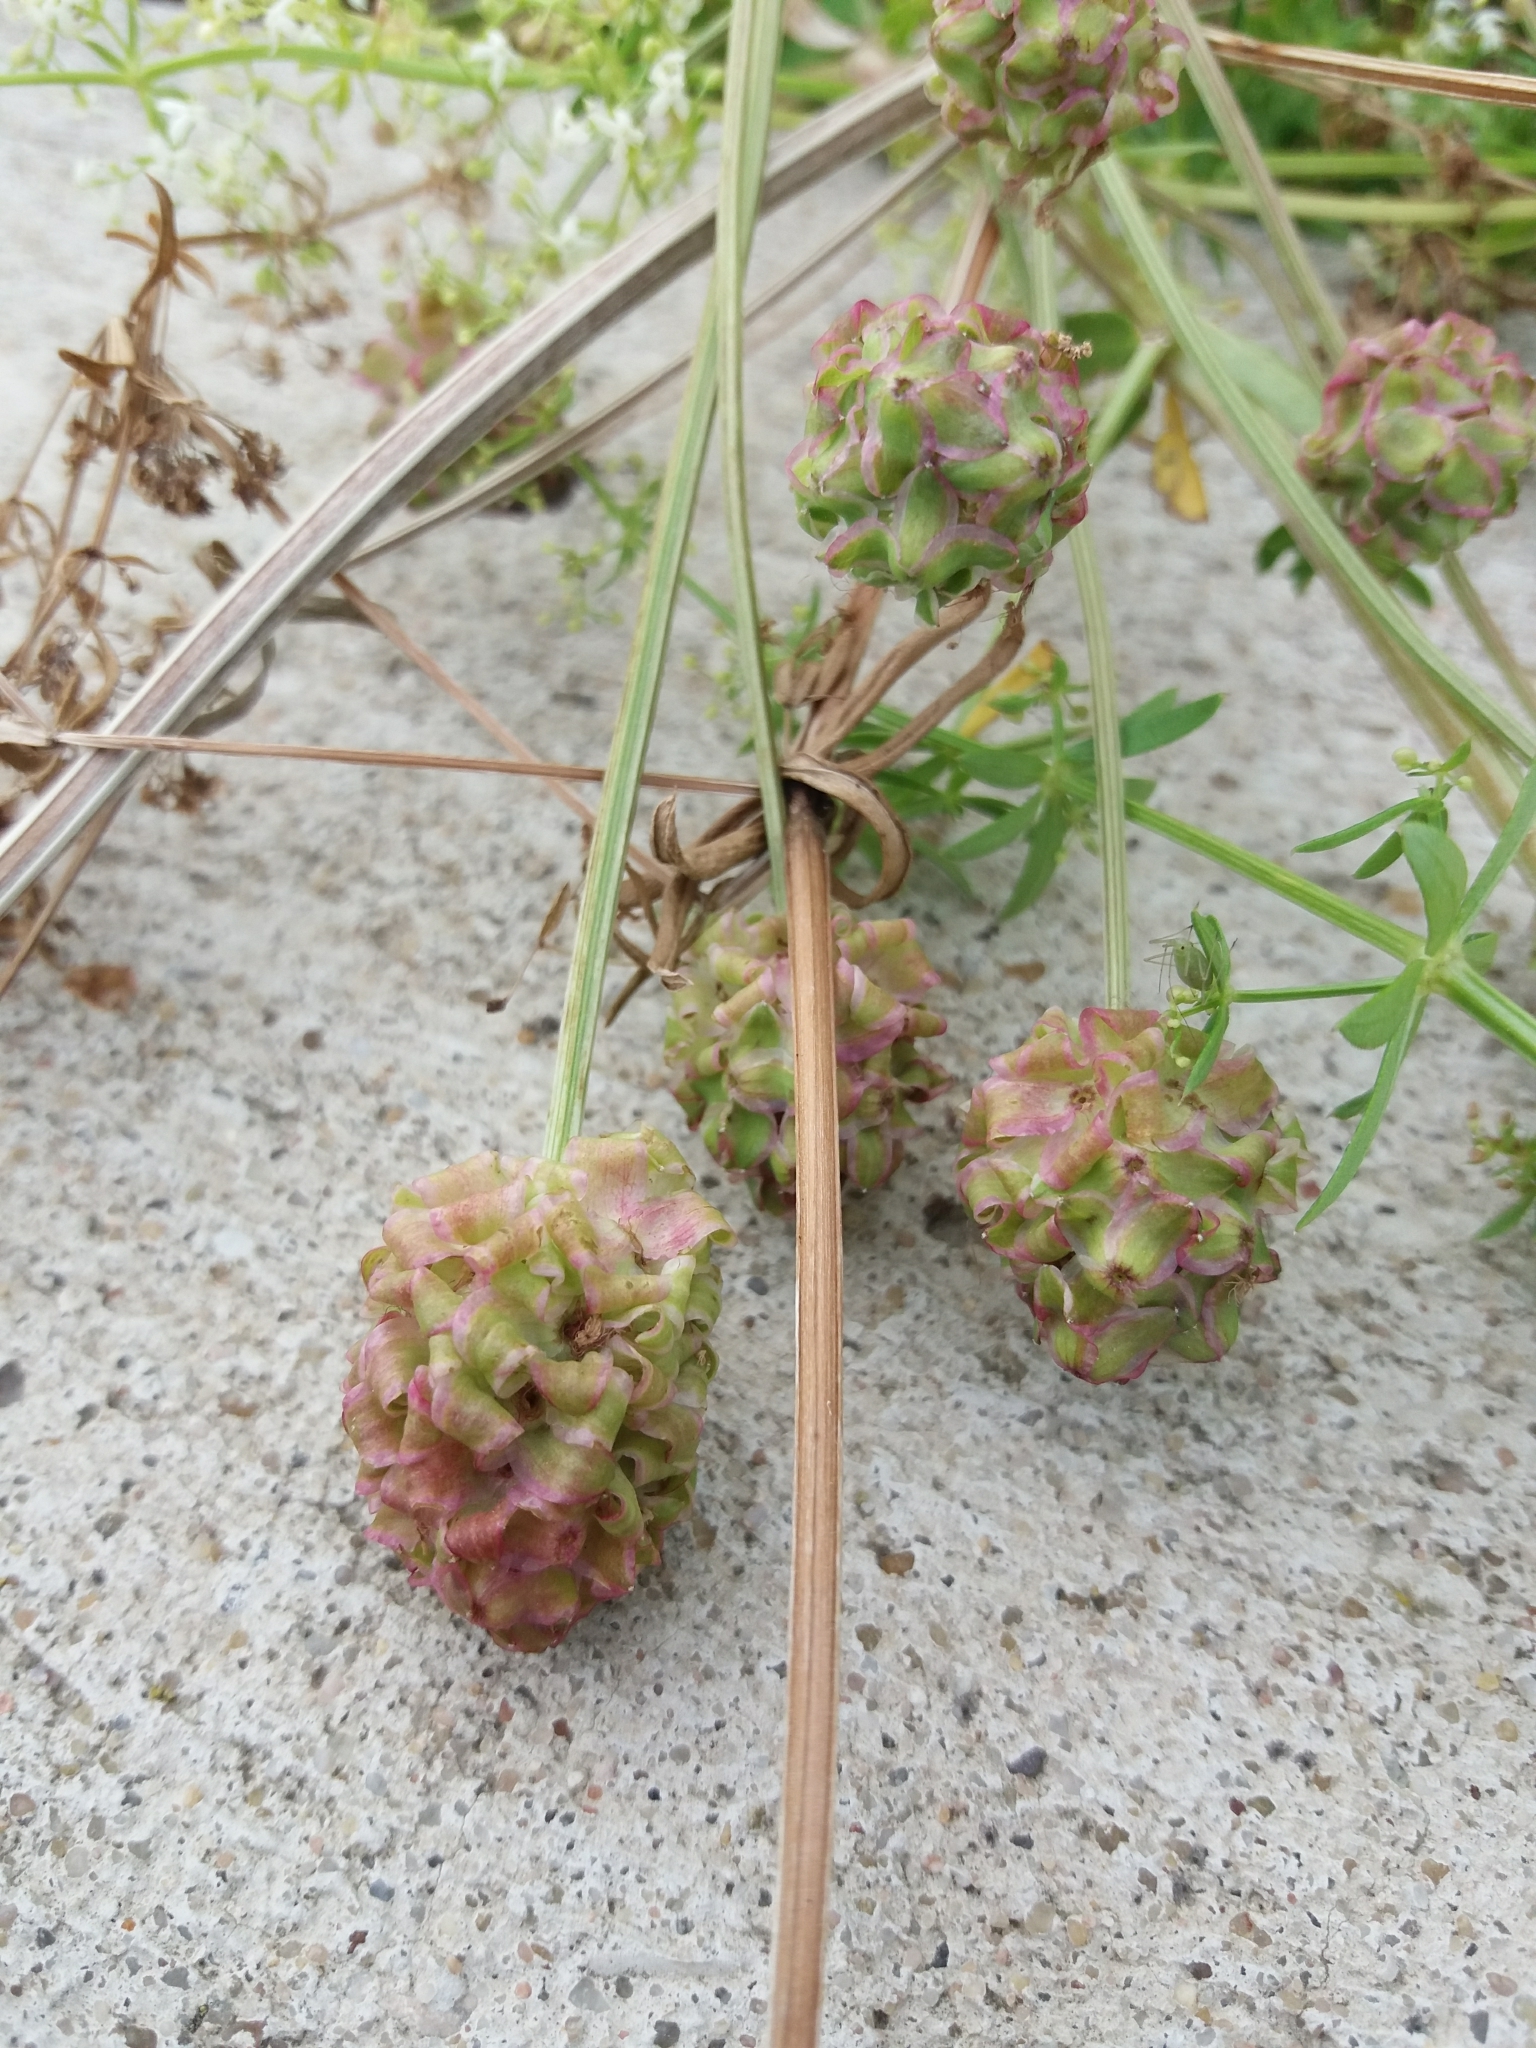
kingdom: Plantae
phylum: Tracheophyta
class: Magnoliopsida
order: Rosales
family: Rosaceae
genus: Poterium
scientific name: Poterium sanguisorba
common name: Salad burnet
